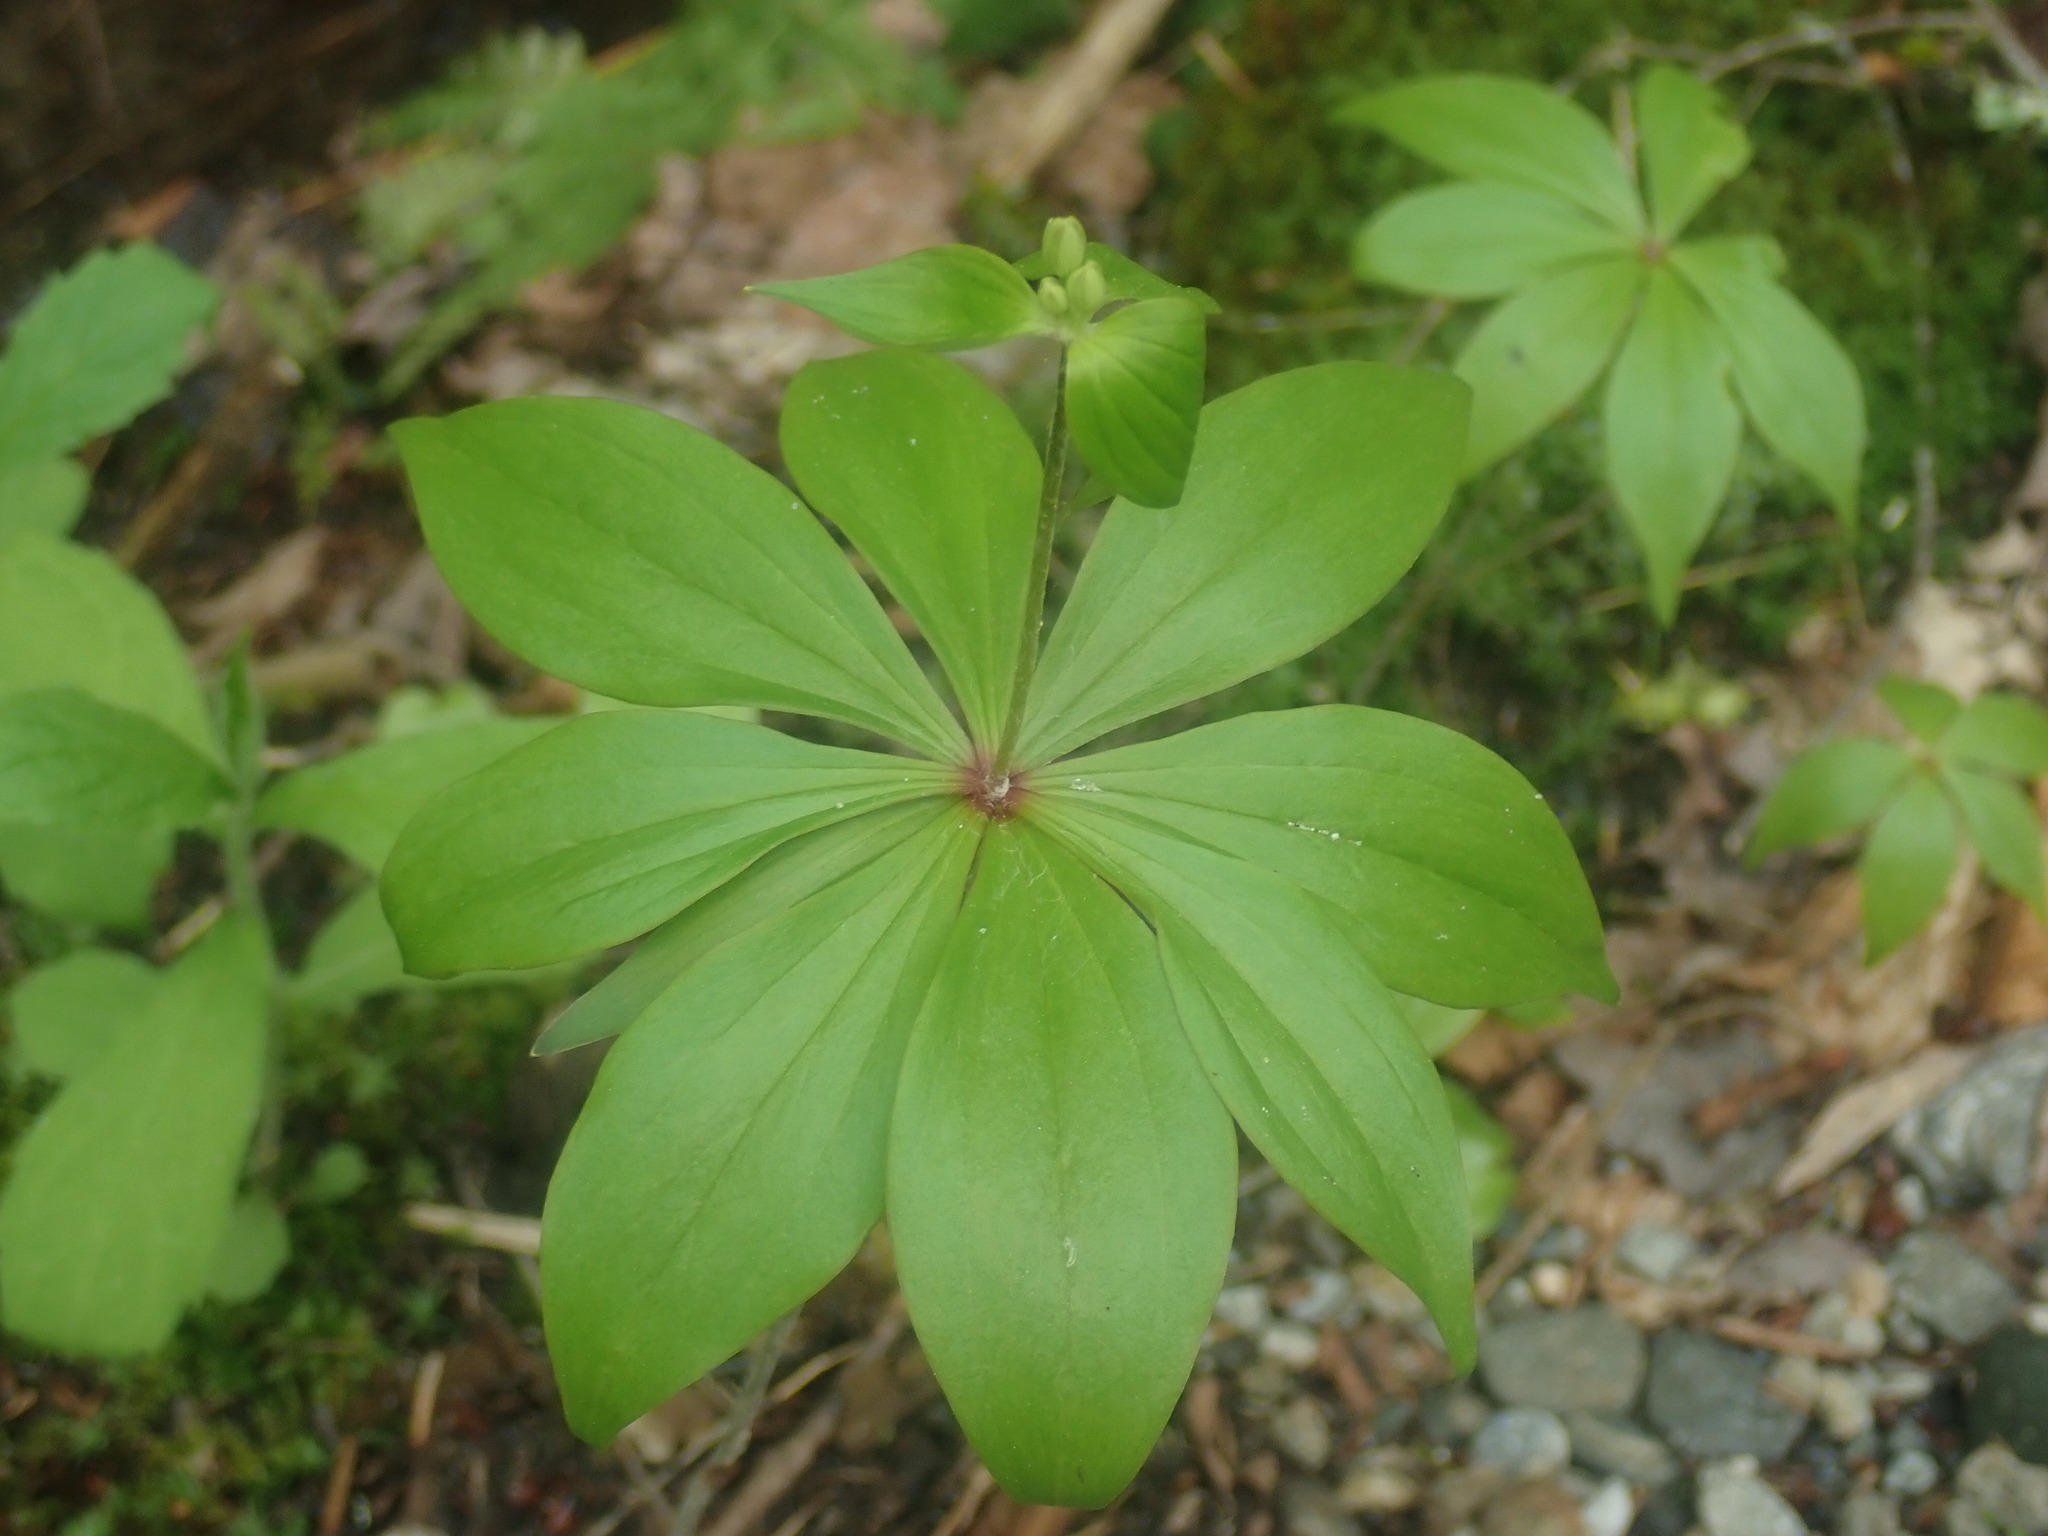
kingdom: Plantae
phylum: Tracheophyta
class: Liliopsida
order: Liliales
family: Liliaceae
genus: Medeola
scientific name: Medeola virginiana
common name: Indian cucumber-root
